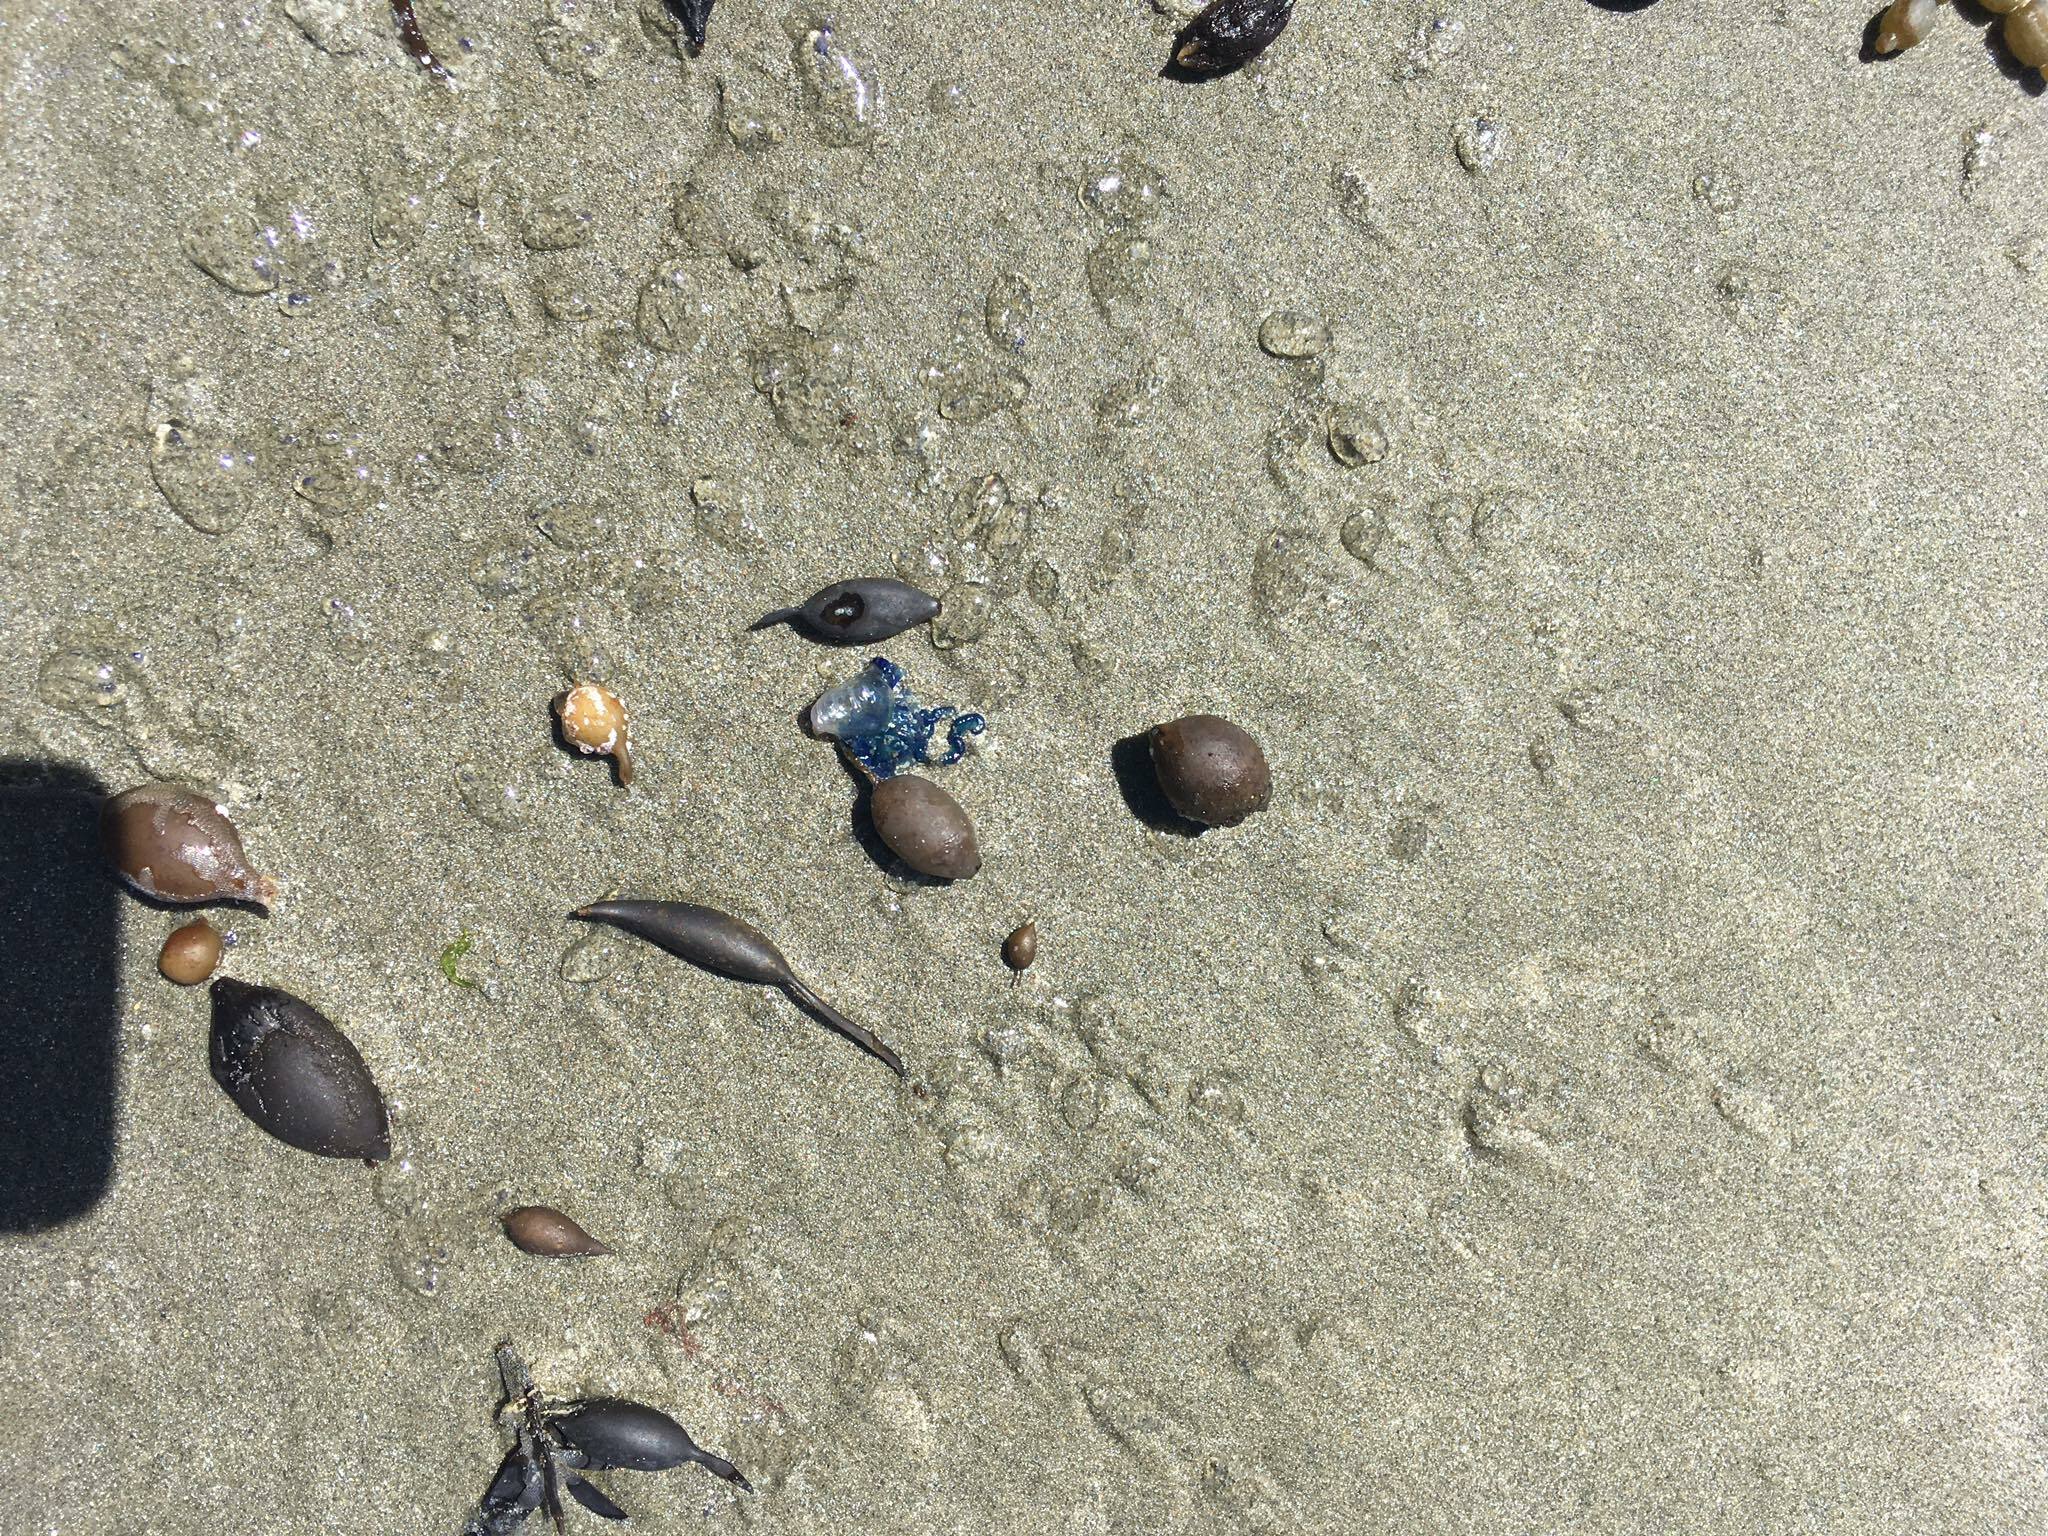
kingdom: Animalia
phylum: Cnidaria
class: Hydrozoa
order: Siphonophorae
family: Physaliidae
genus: Physalia
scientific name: Physalia physalis
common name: Portuguese man-of-war
